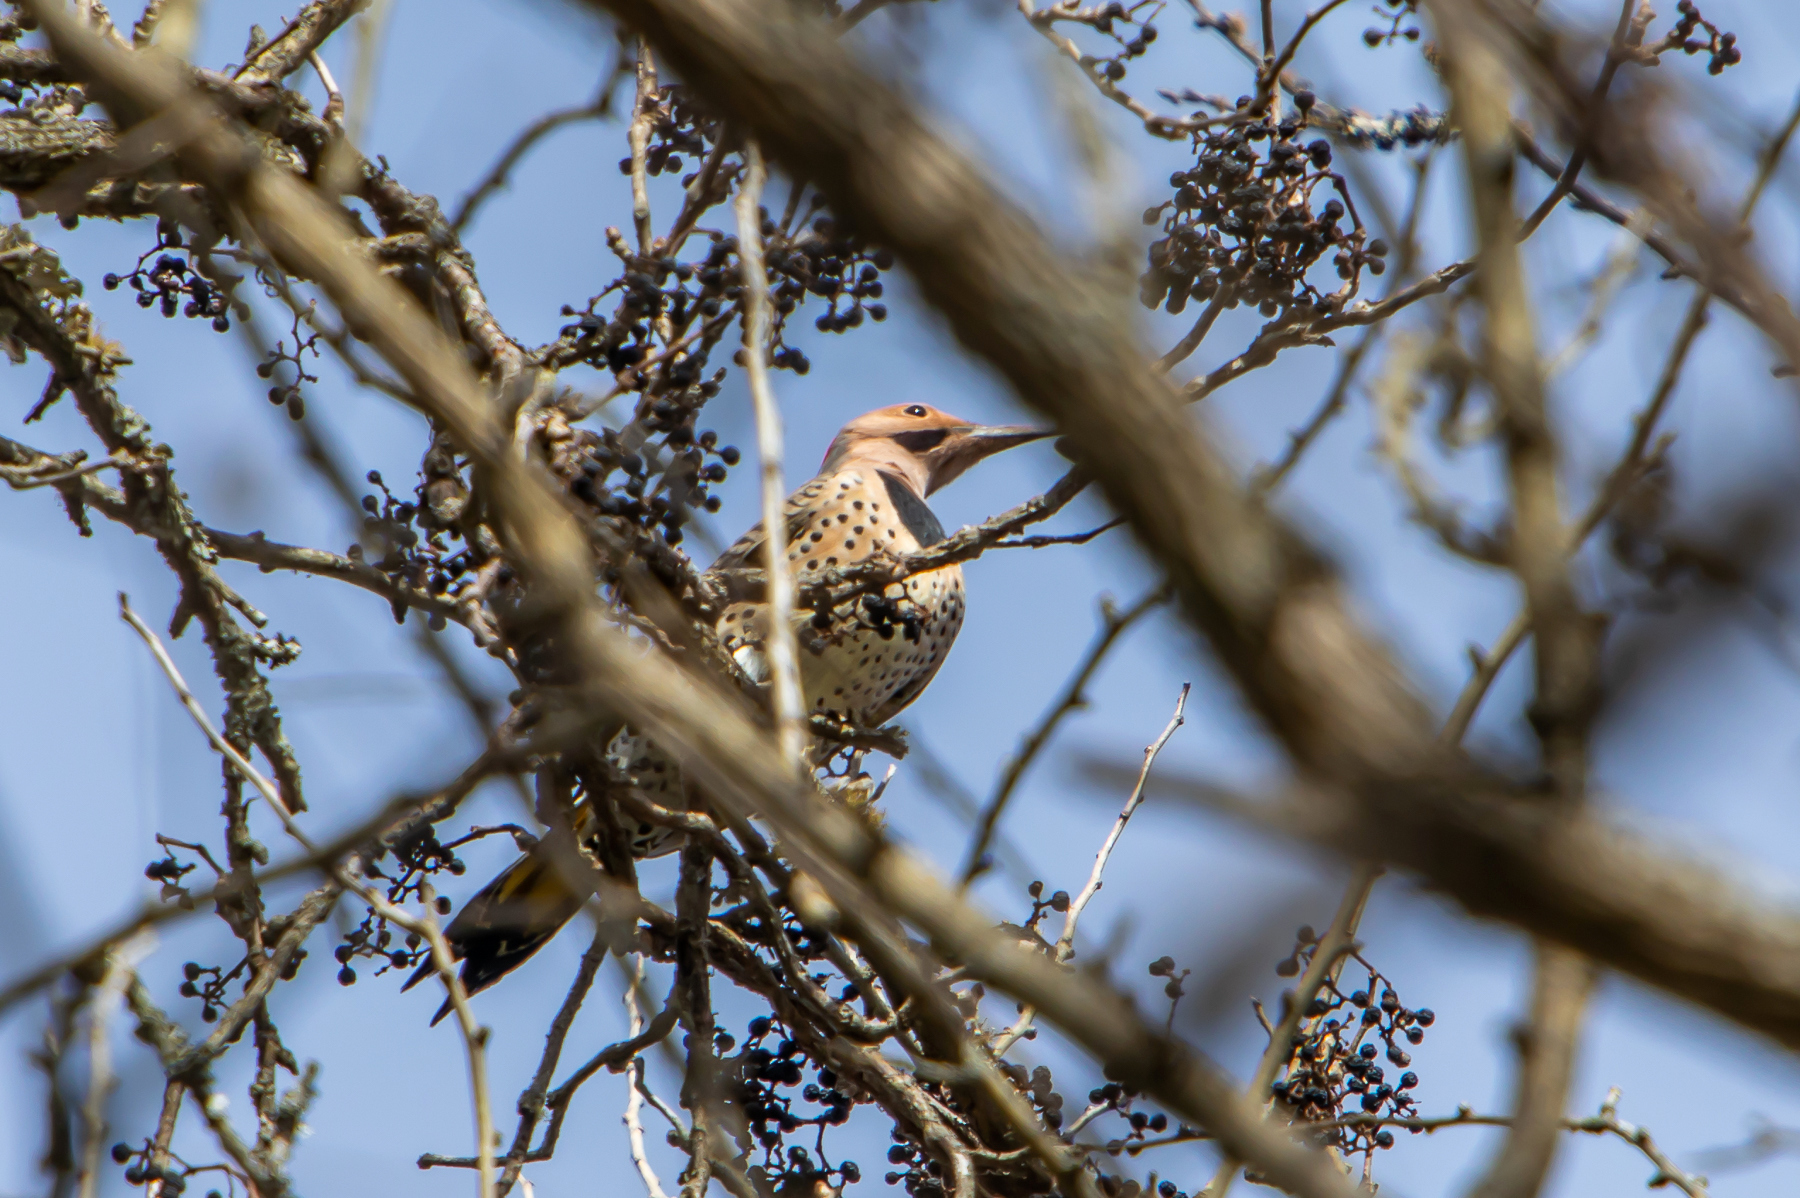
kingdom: Animalia
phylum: Chordata
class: Aves
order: Piciformes
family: Picidae
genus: Colaptes
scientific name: Colaptes auratus
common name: Northern flicker
